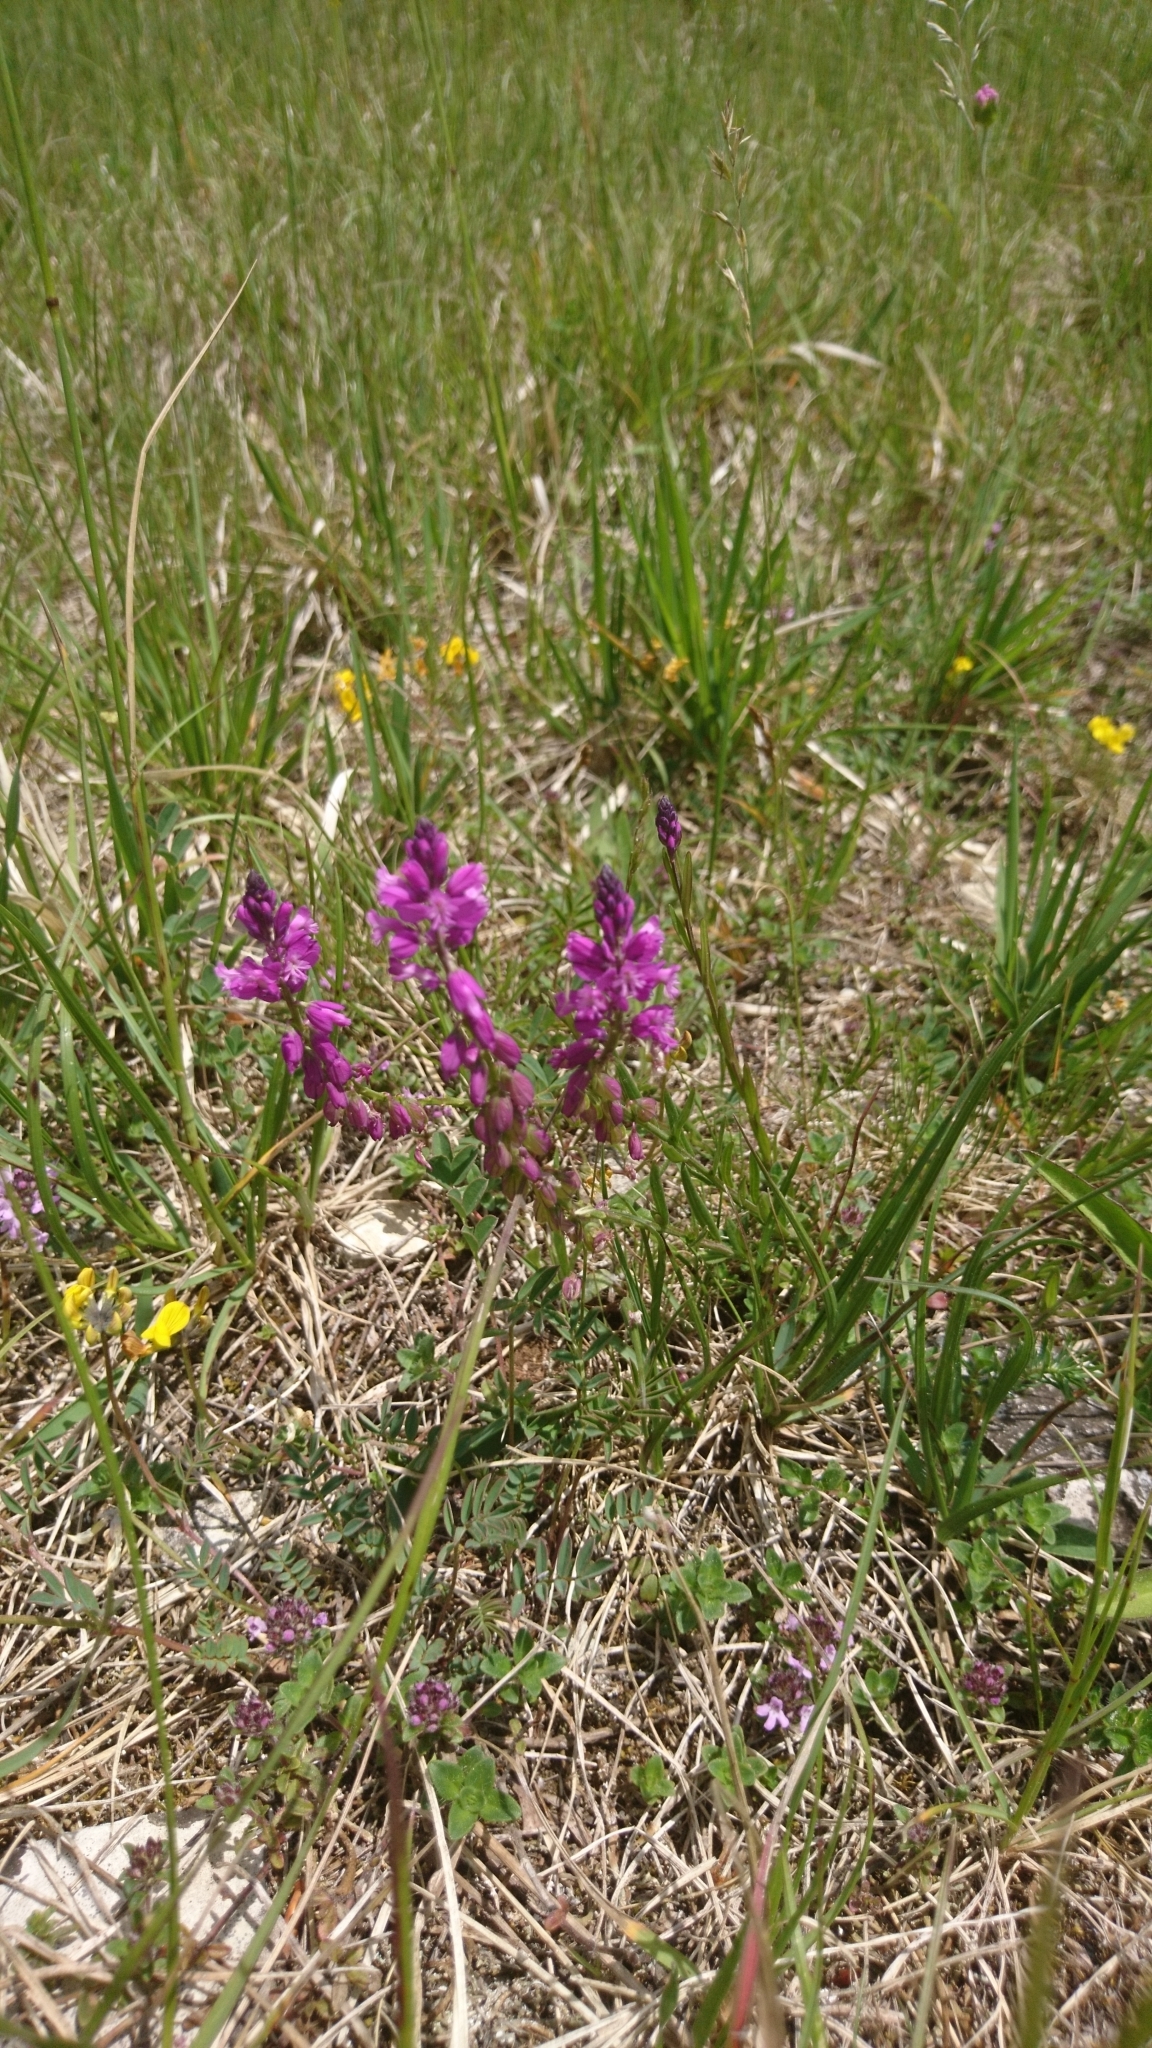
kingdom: Plantae
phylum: Tracheophyta
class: Magnoliopsida
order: Fabales
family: Polygalaceae
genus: Polygala
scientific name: Polygala comosa
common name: Tufted milkwort
